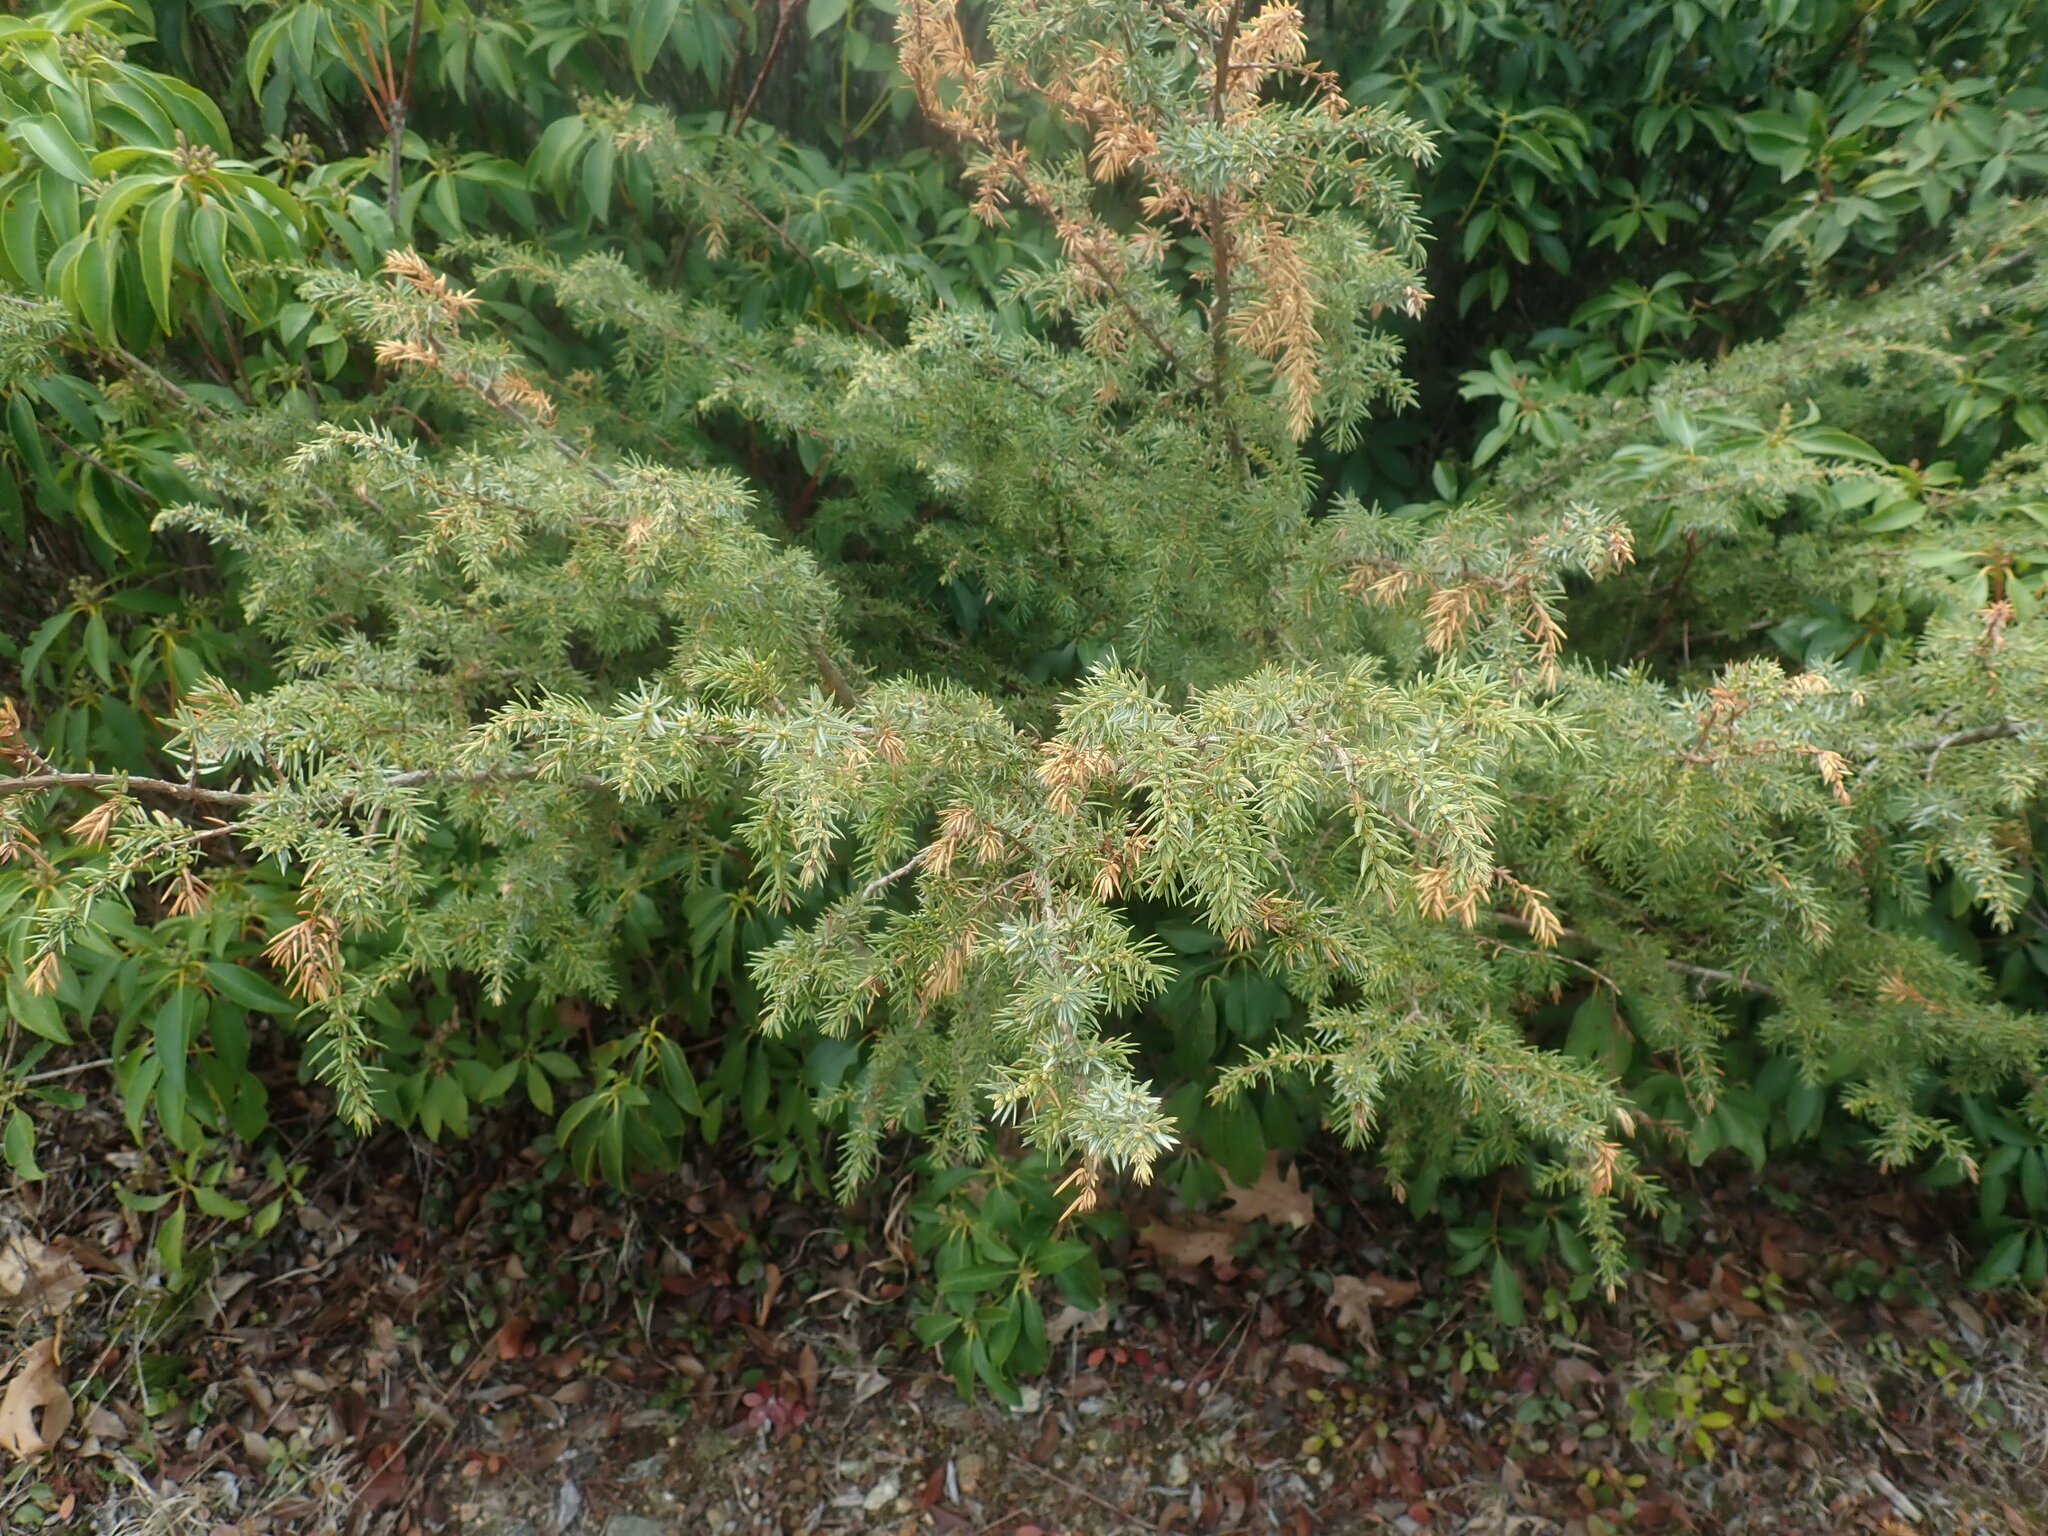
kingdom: Plantae
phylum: Tracheophyta
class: Pinopsida
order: Pinales
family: Cupressaceae
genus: Juniperus
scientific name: Juniperus communis
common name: Common juniper
